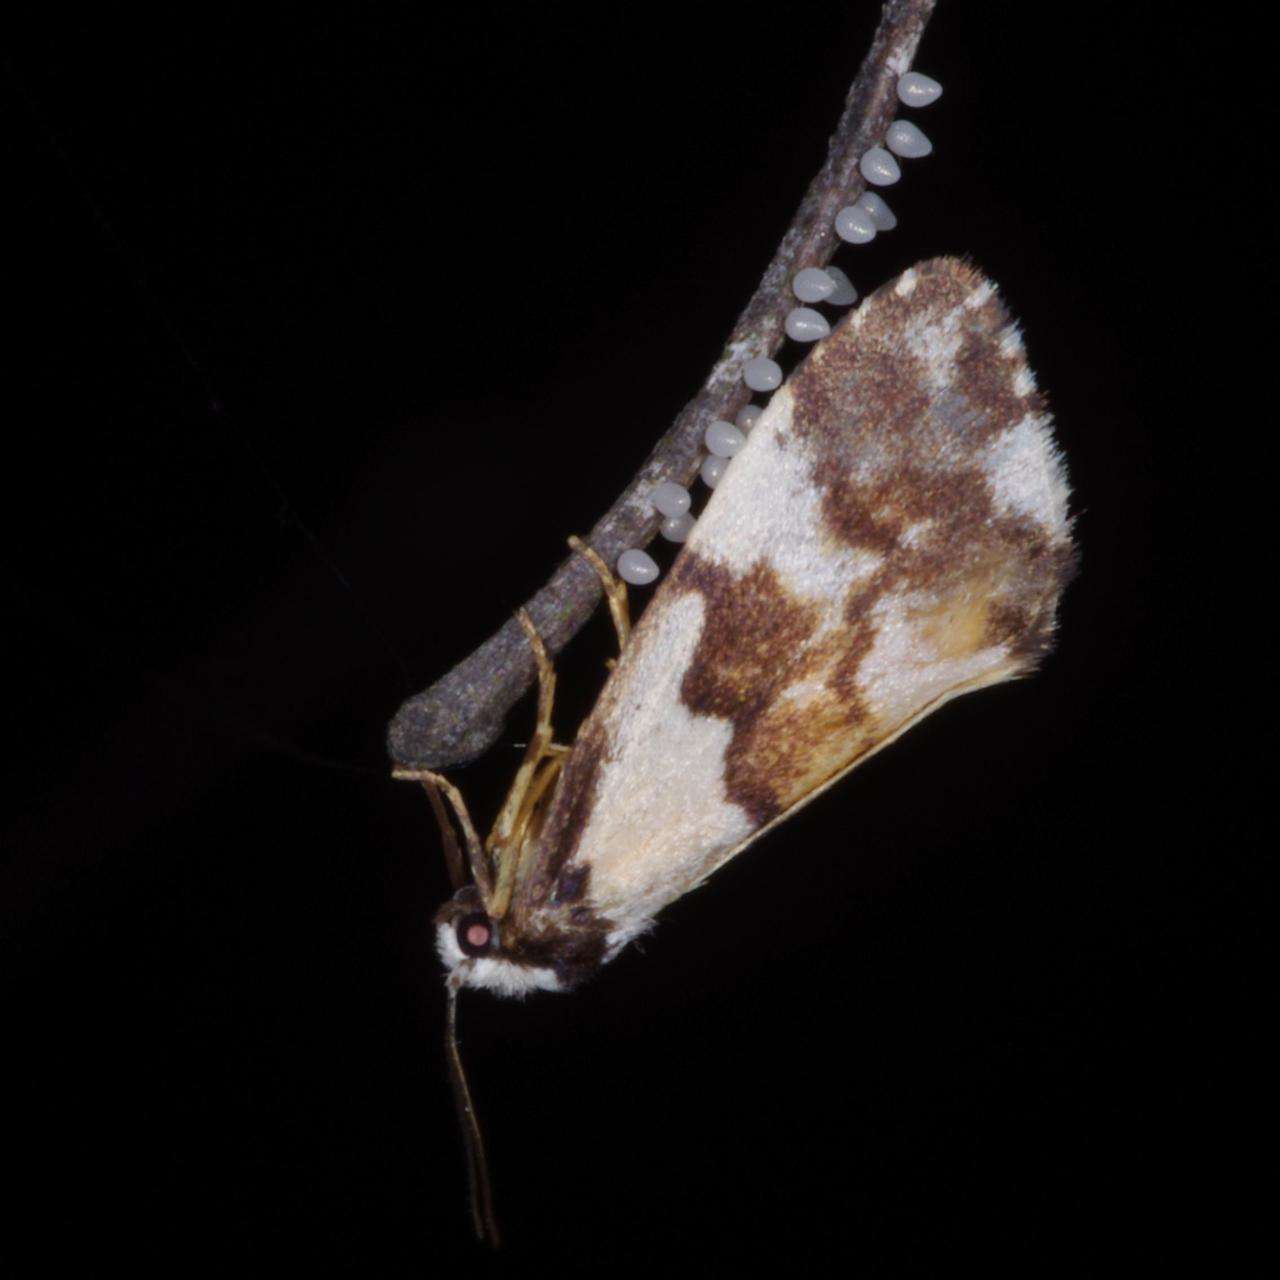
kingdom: Animalia
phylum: Arthropoda
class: Insecta
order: Lepidoptera
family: Erebidae
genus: Philenora
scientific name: Philenora aspectalella
